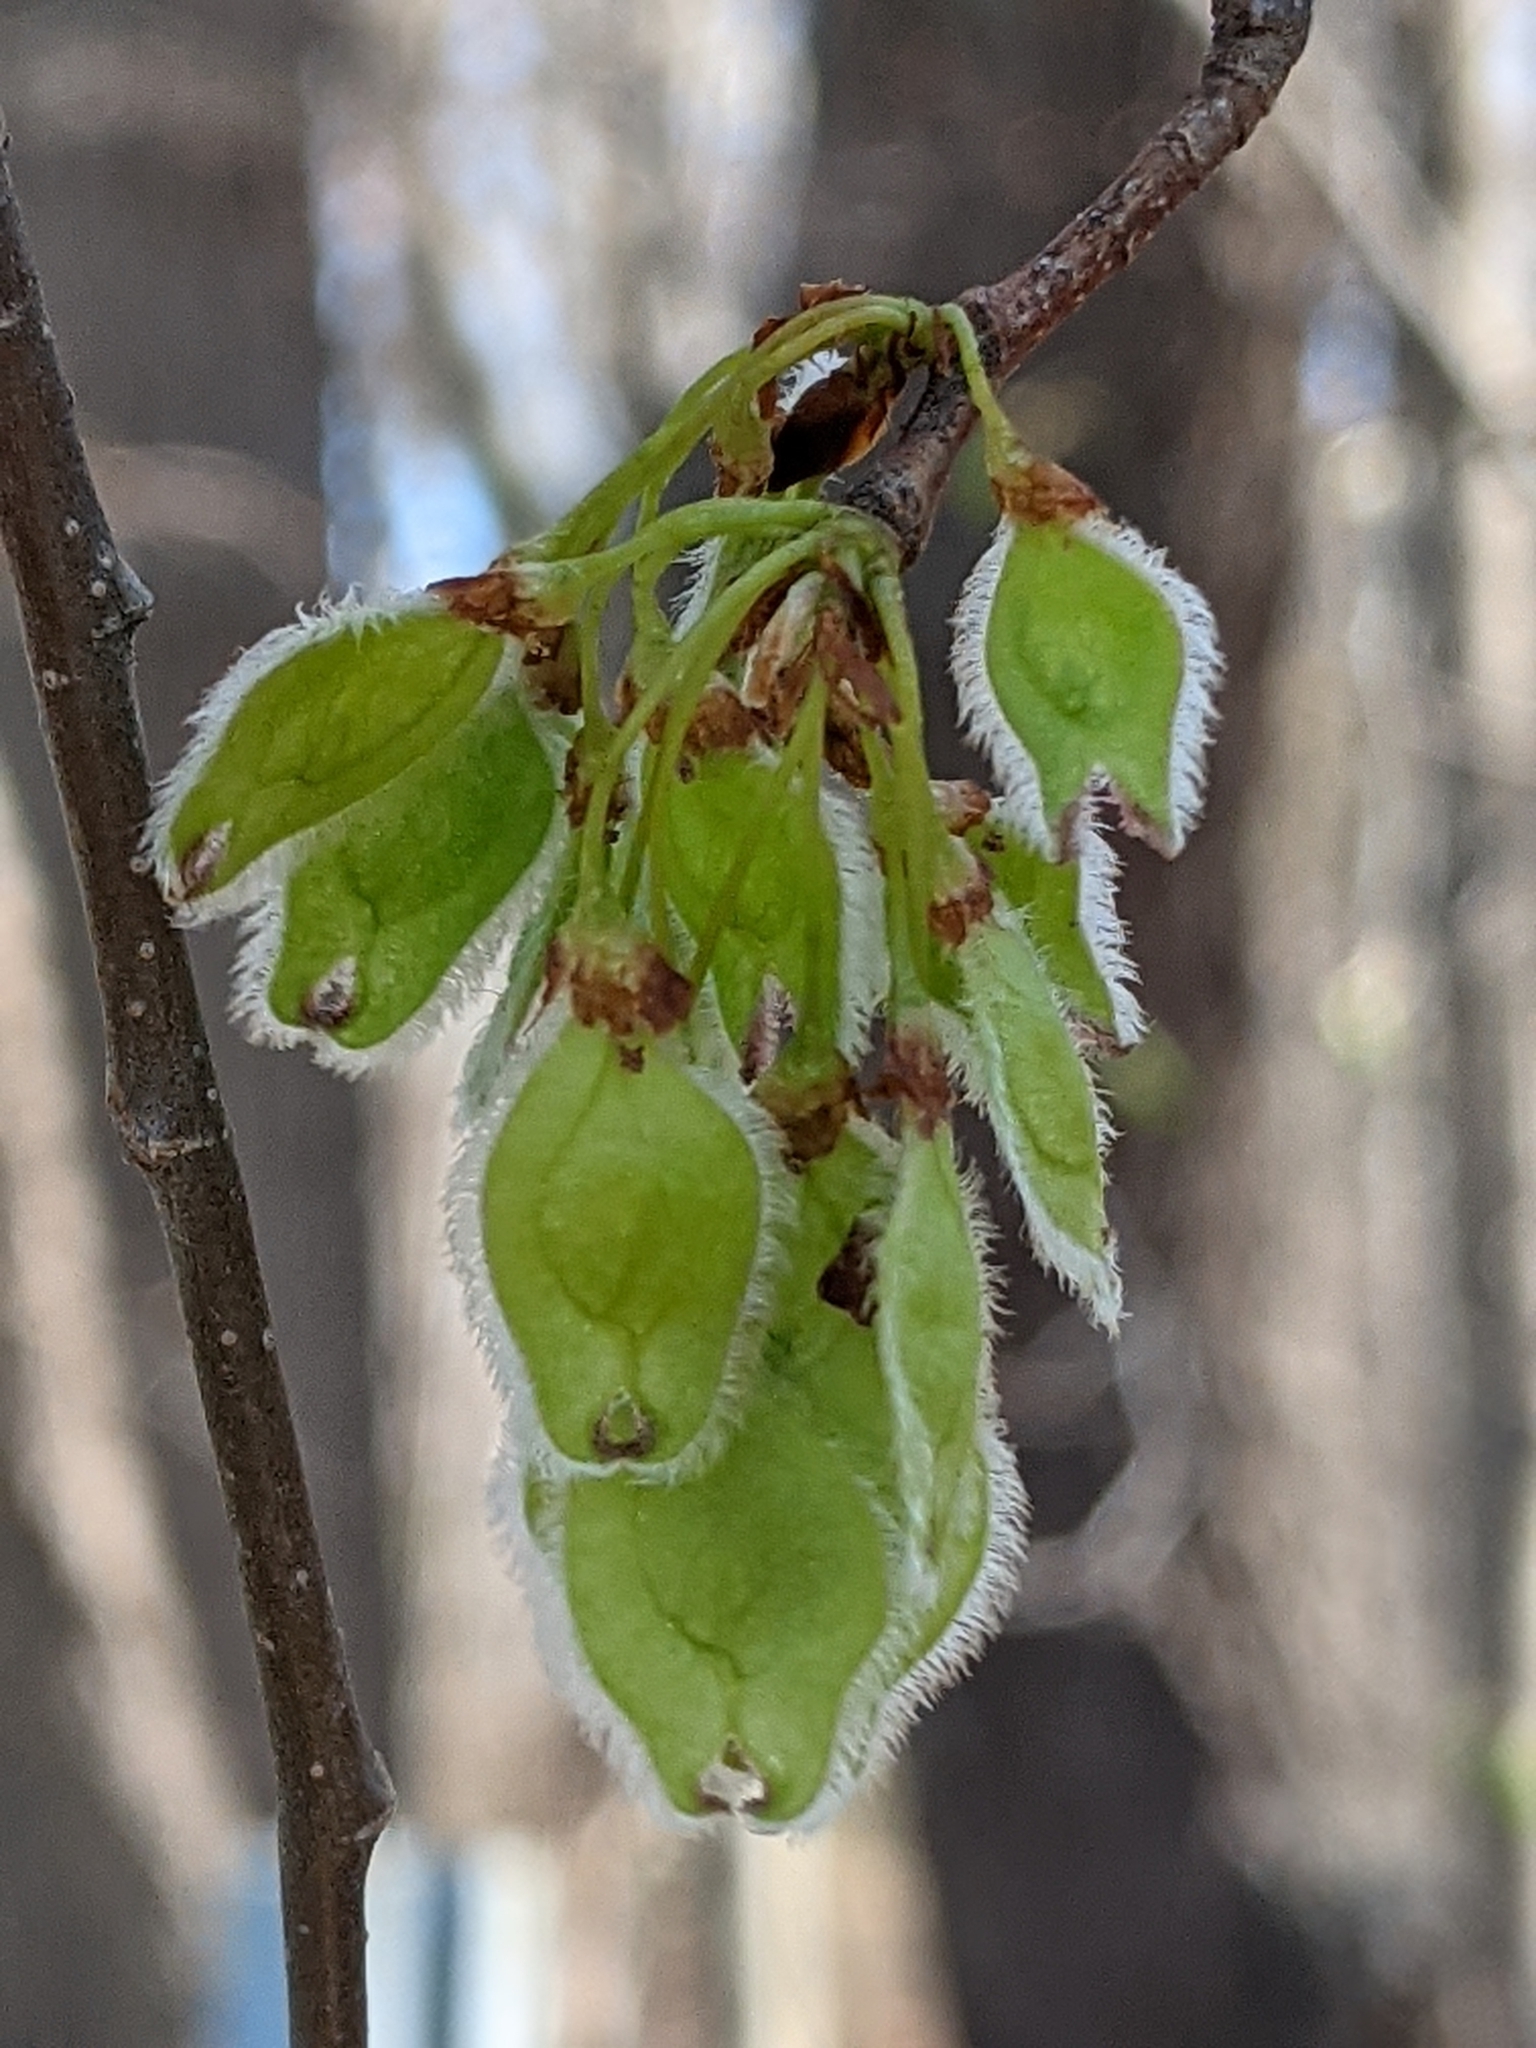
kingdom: Plantae
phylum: Tracheophyta
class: Magnoliopsida
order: Rosales
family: Ulmaceae
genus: Ulmus
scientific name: Ulmus americana
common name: American elm
